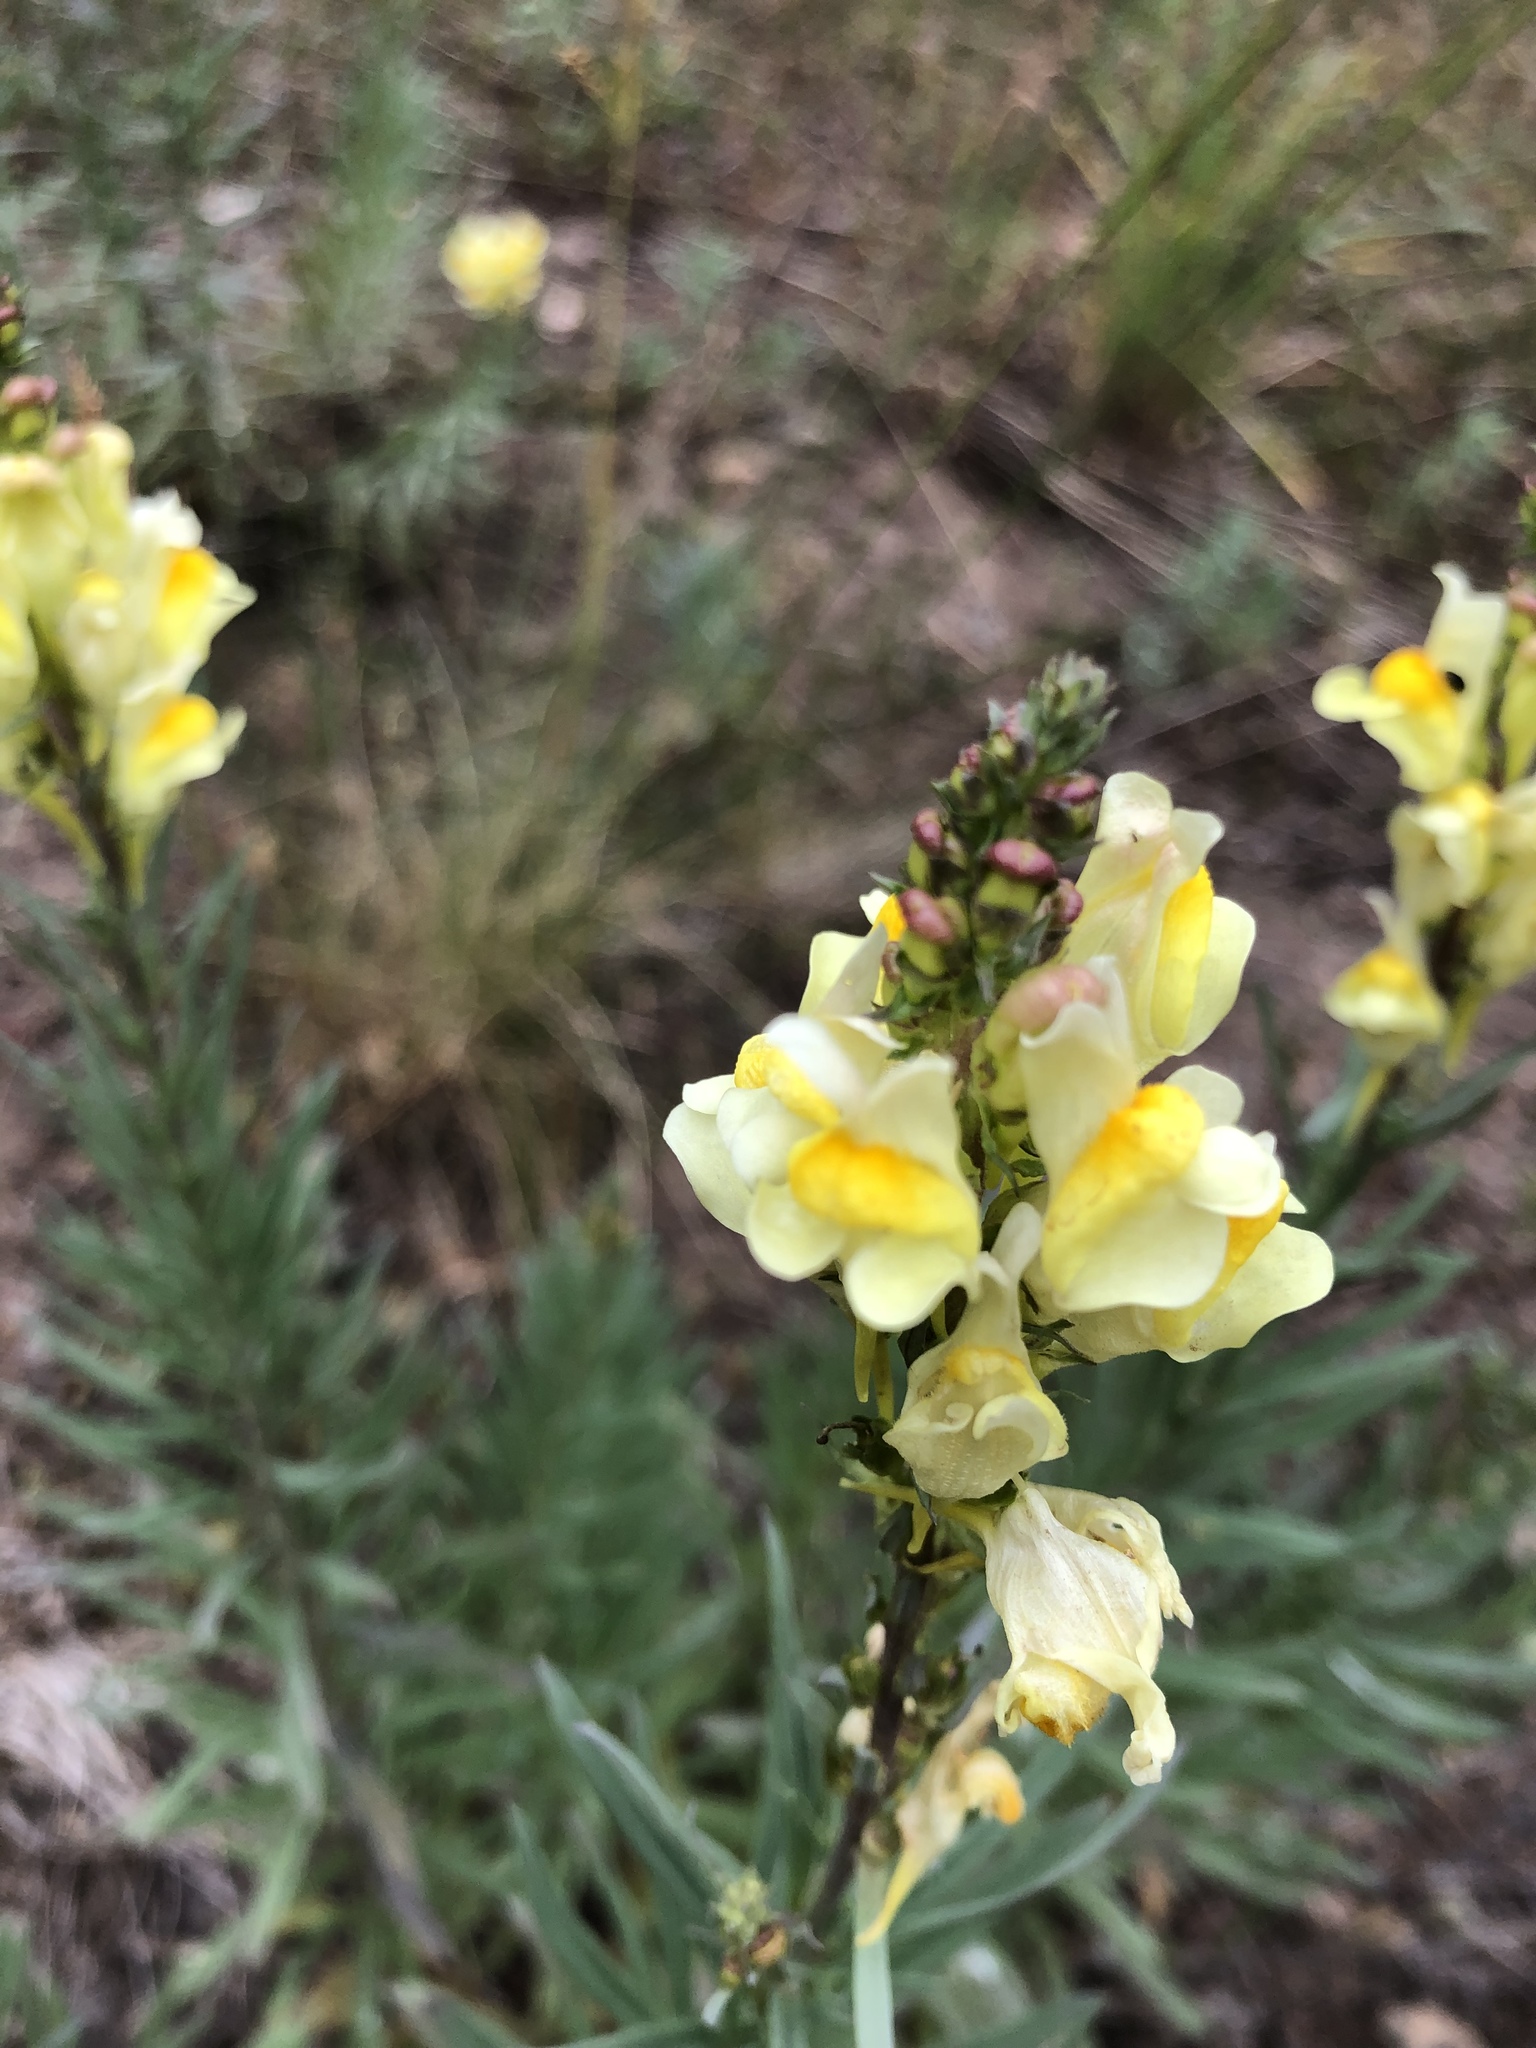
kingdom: Plantae
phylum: Tracheophyta
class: Magnoliopsida
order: Lamiales
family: Plantaginaceae
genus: Linaria
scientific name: Linaria vulgaris
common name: Butter and eggs
